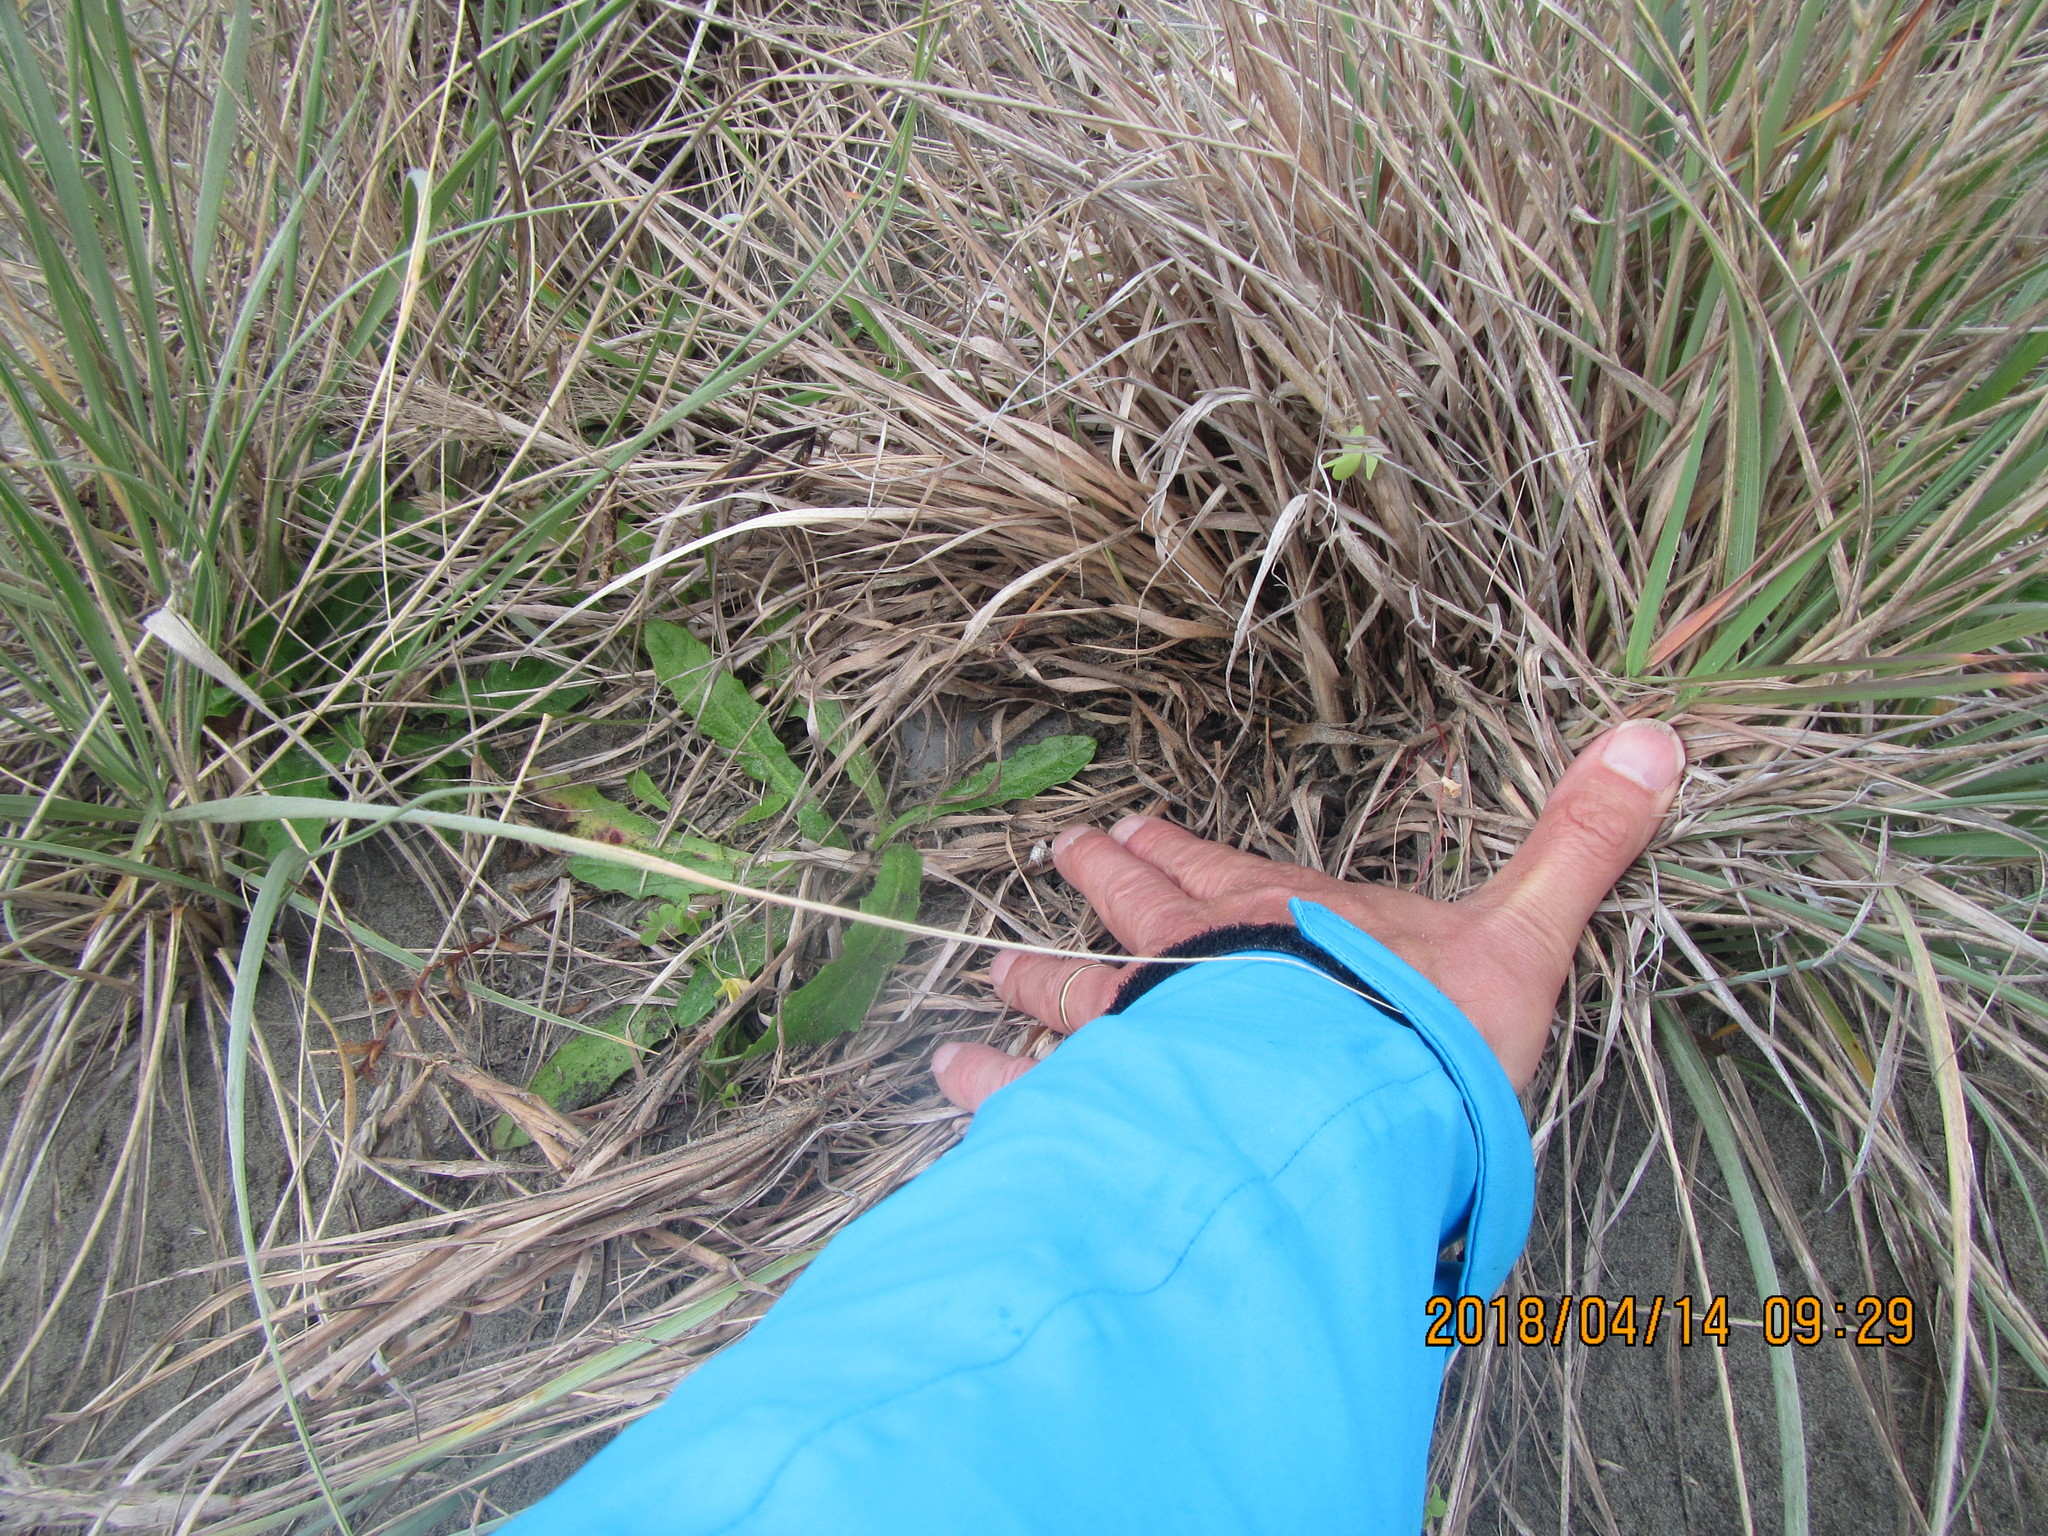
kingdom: Animalia
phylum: Arthropoda
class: Arachnida
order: Araneae
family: Porrhothelidae
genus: Porrhothele
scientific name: Porrhothele antipodiana
